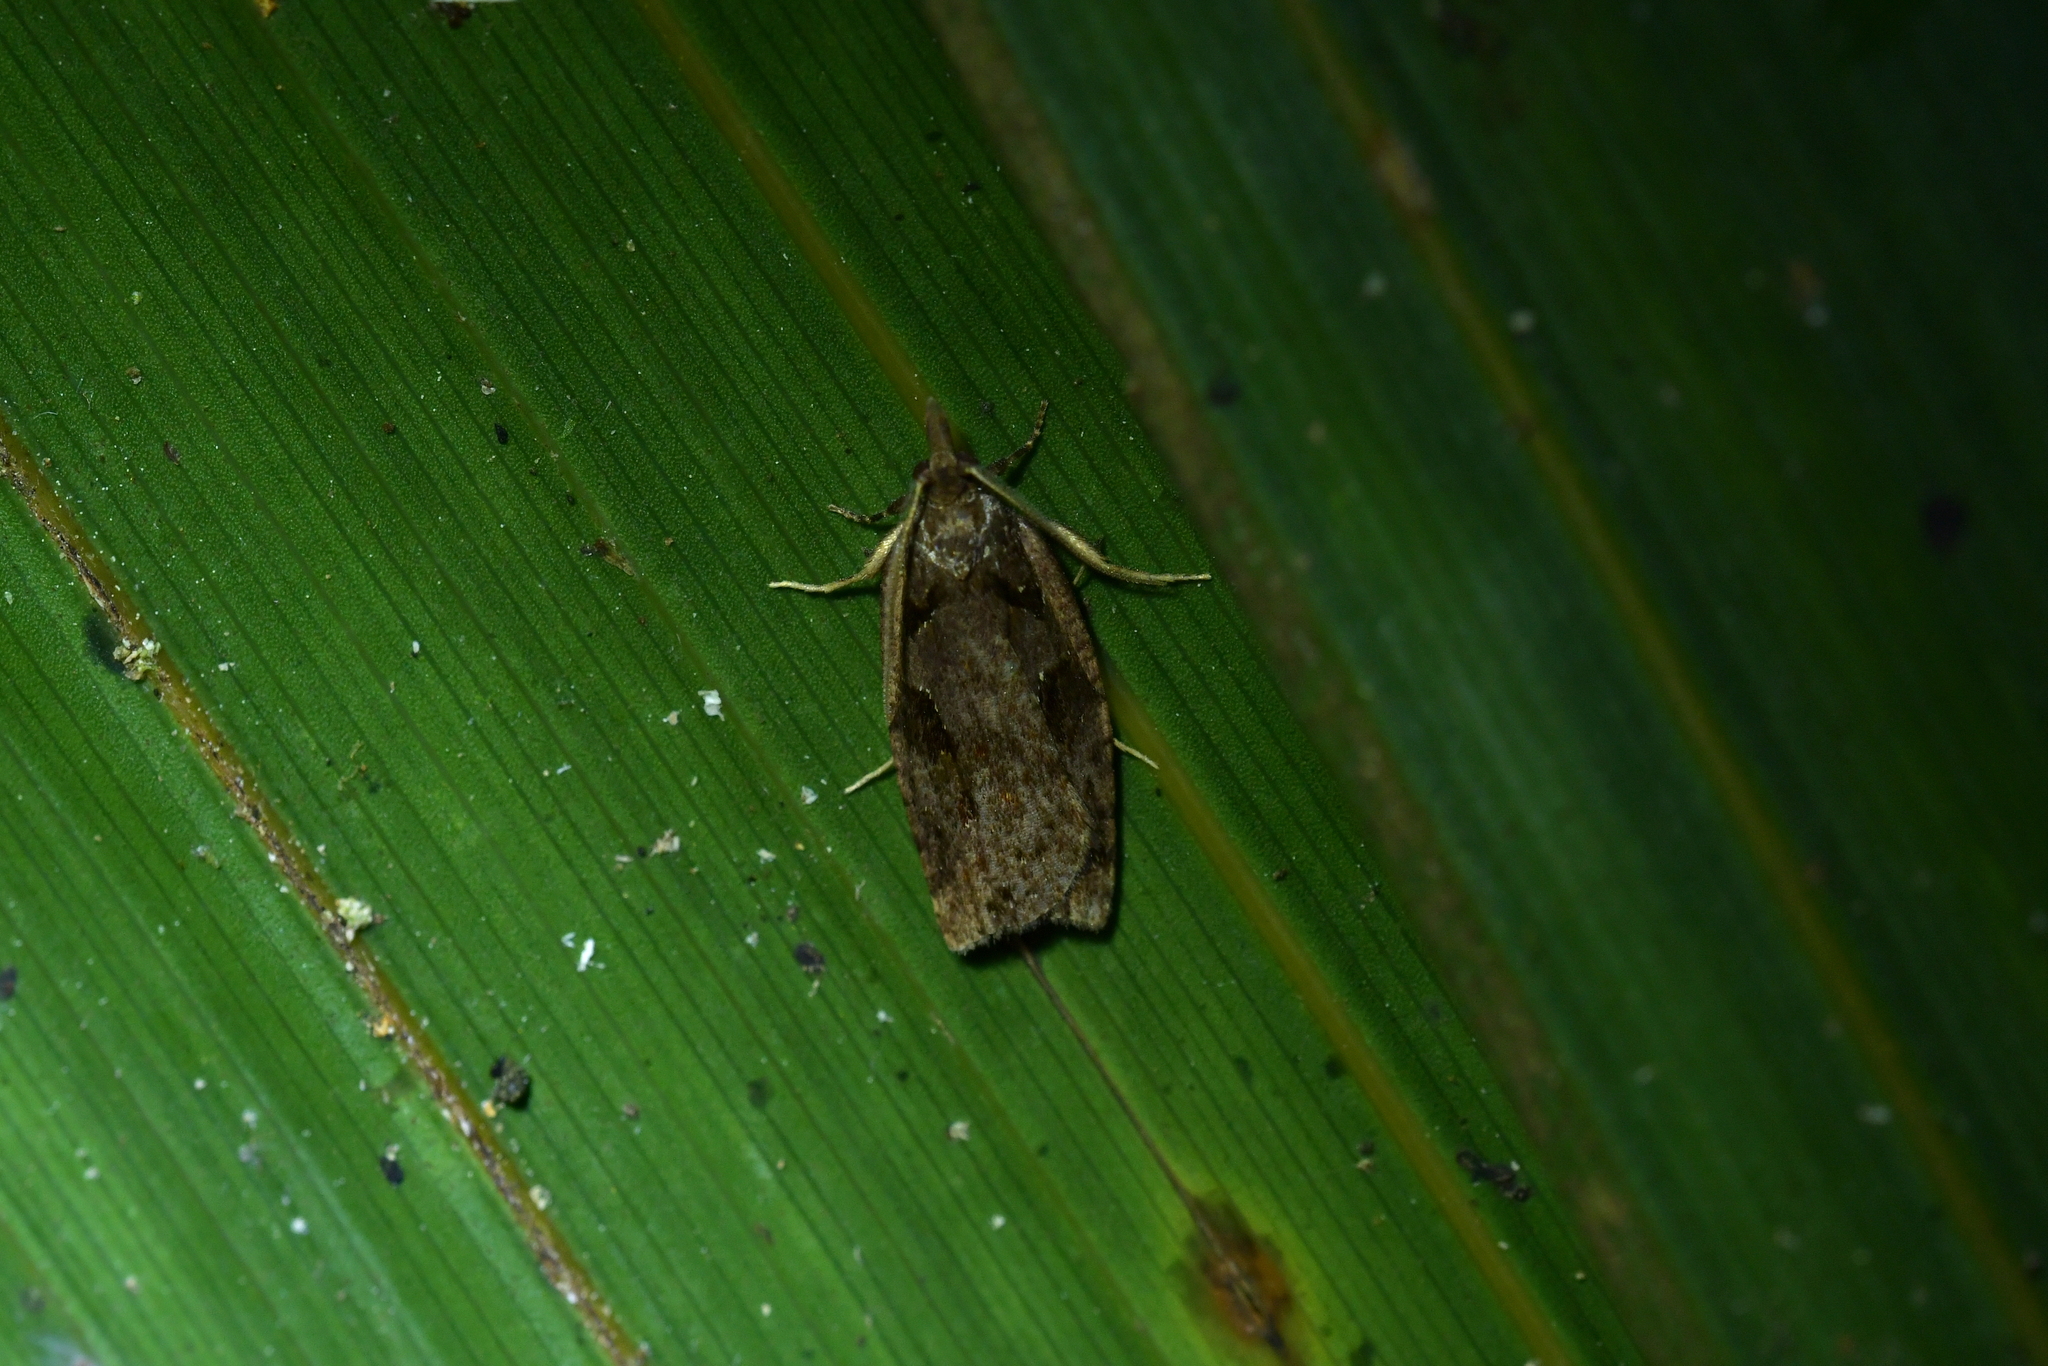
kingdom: Animalia
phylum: Arthropoda
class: Insecta
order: Lepidoptera
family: Tortricidae
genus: Ctenopseustis
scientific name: Ctenopseustis fraterna
